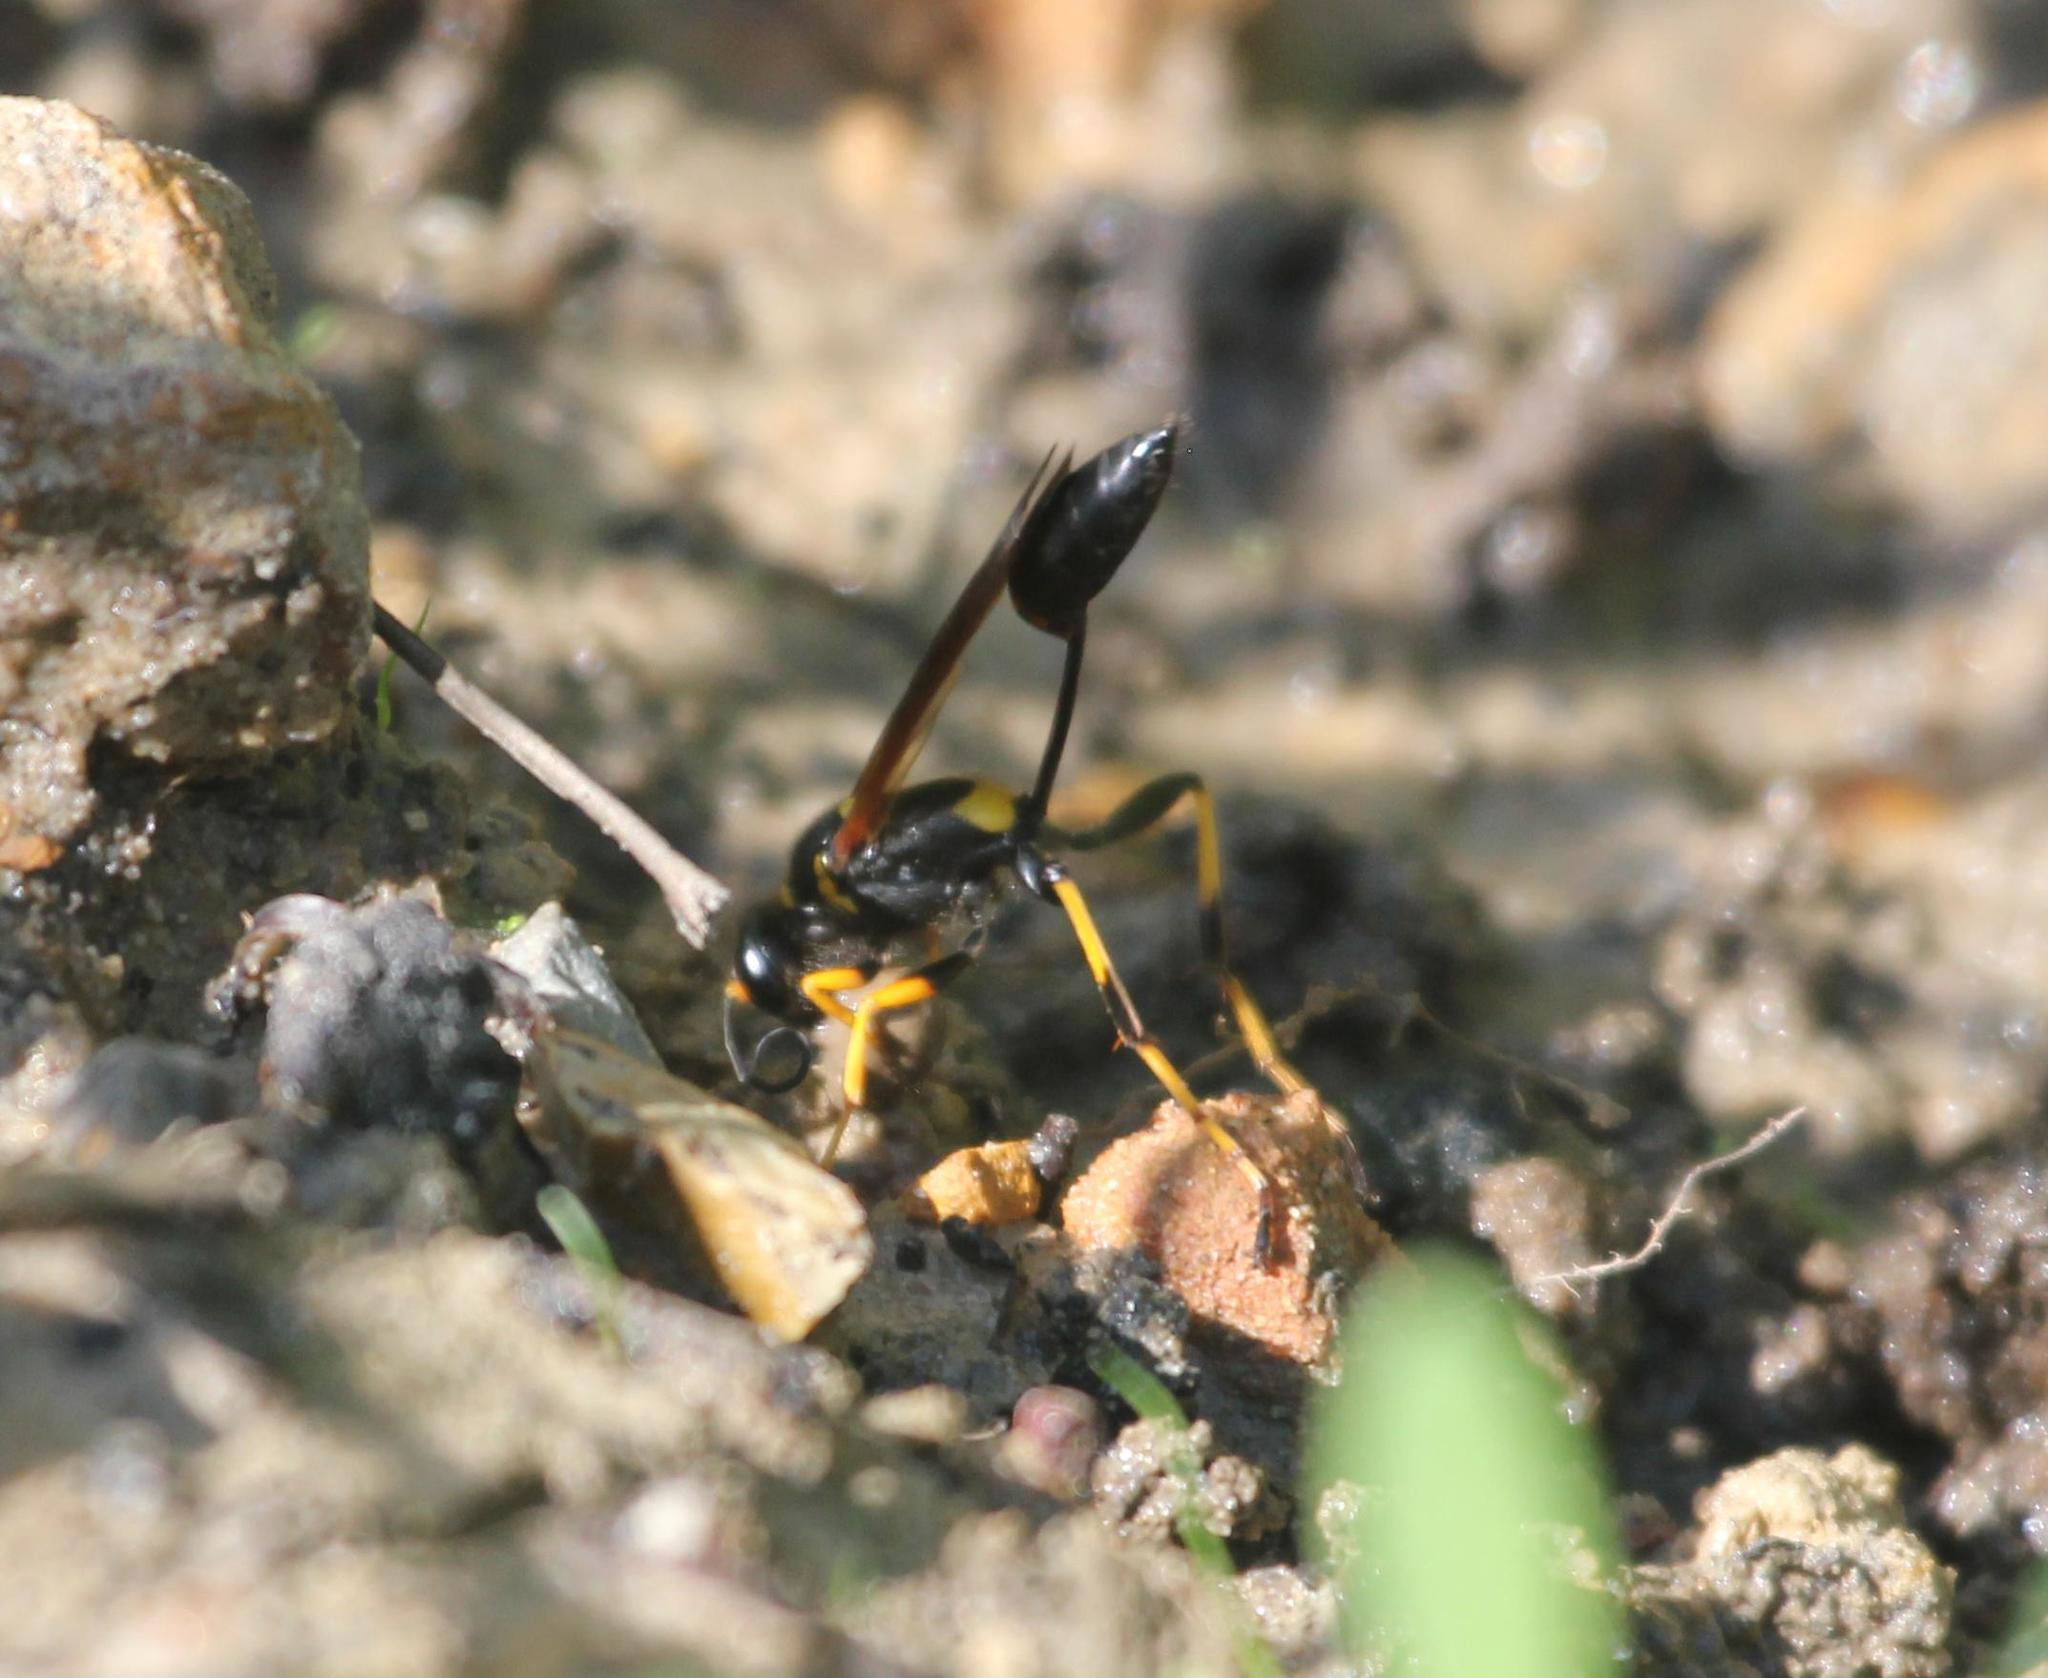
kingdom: Animalia
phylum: Arthropoda
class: Insecta
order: Hymenoptera
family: Sphecidae
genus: Sceliphron
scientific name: Sceliphron caementarium
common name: Mud dauber
